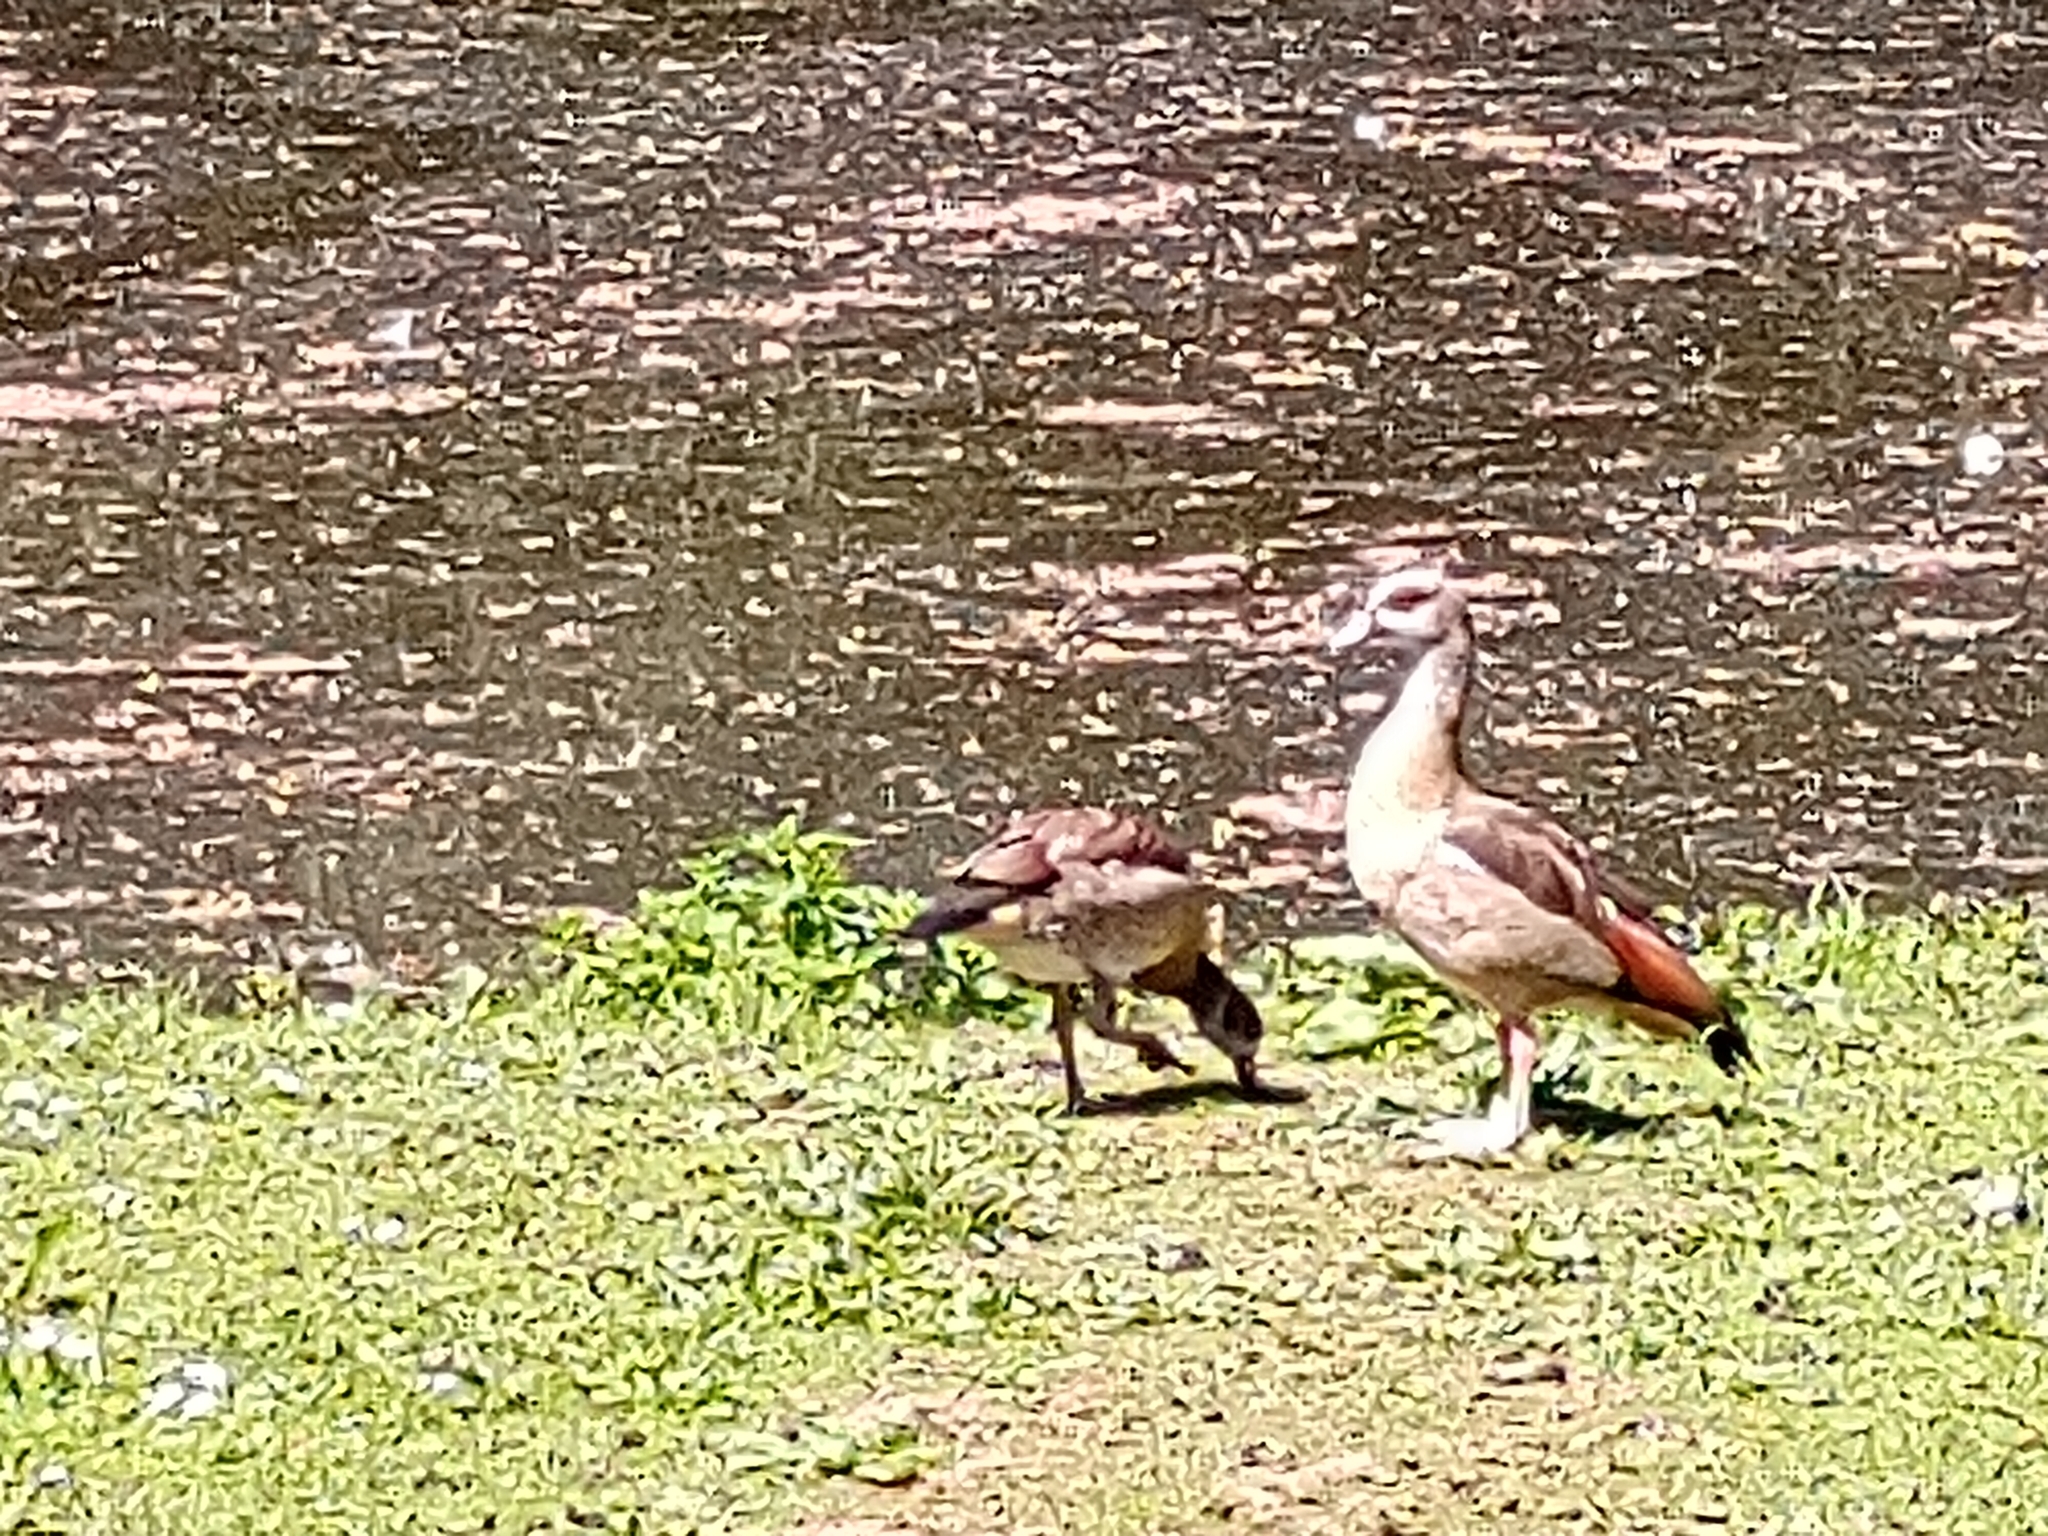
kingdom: Animalia
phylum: Chordata
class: Aves
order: Anseriformes
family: Anatidae
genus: Alopochen
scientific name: Alopochen aegyptiaca
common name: Egyptian goose
